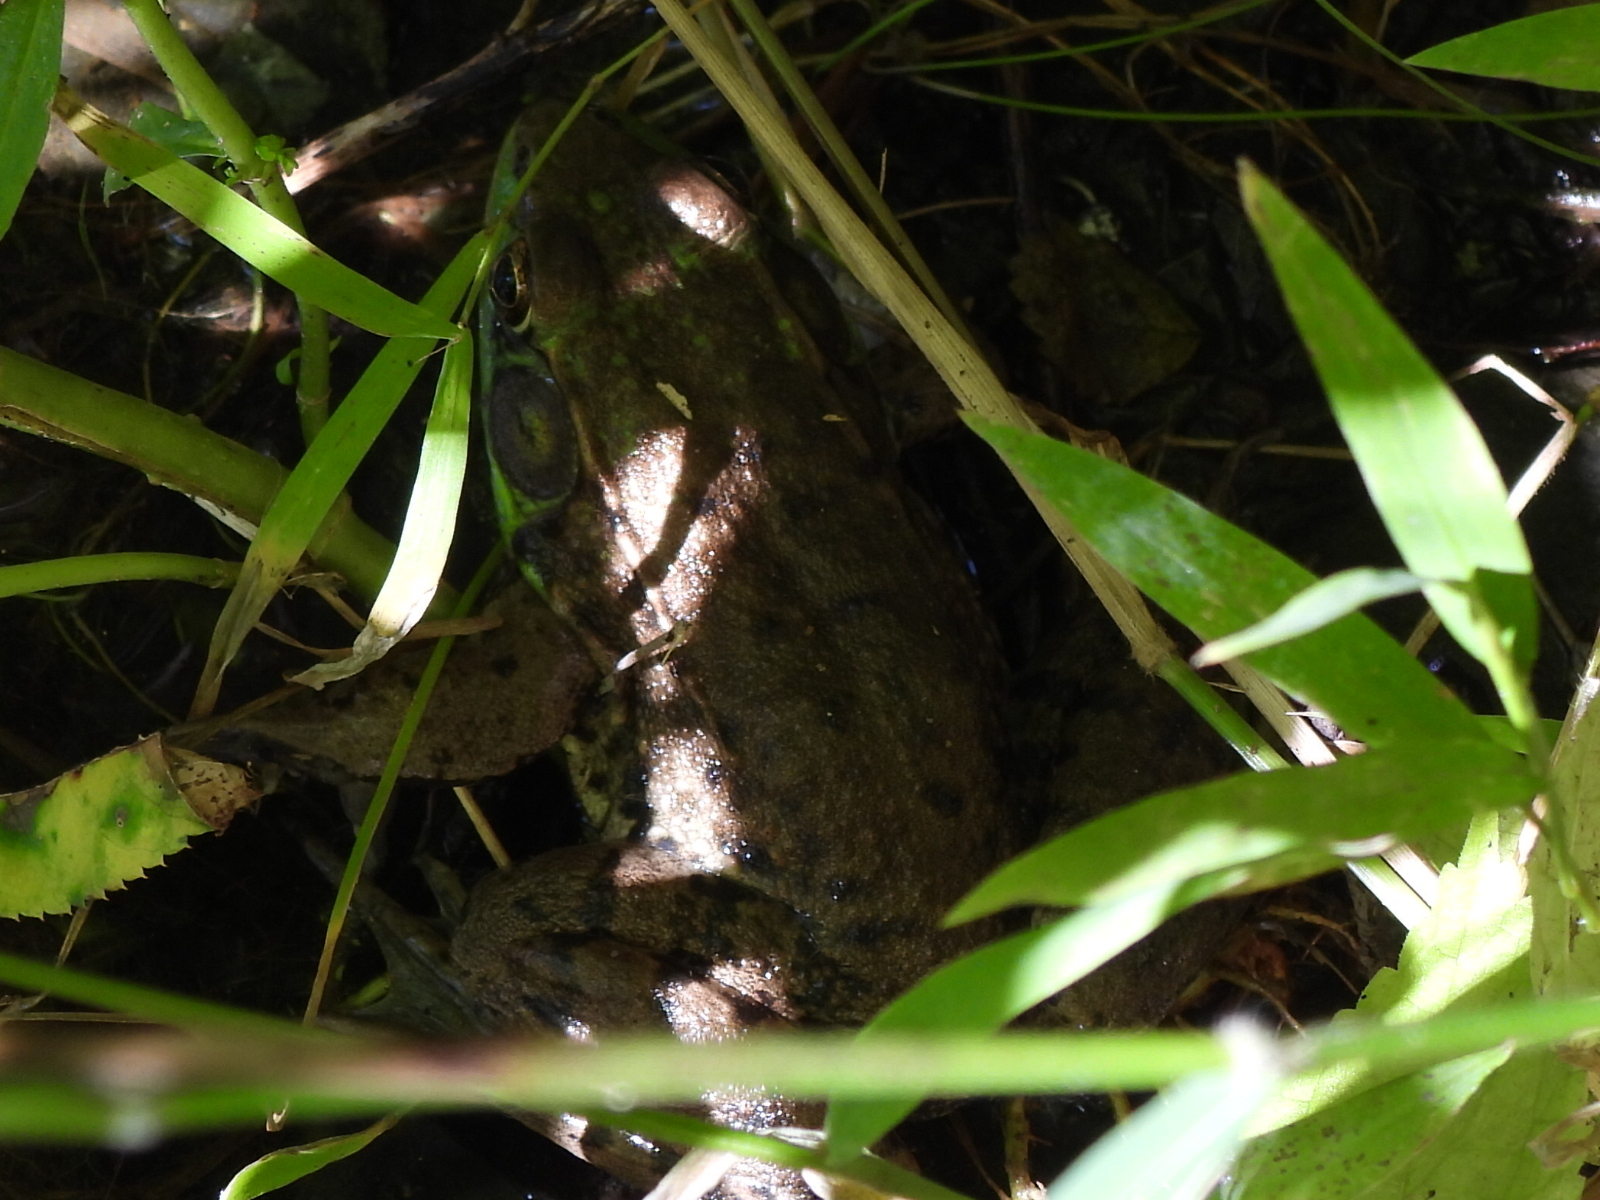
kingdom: Animalia
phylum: Chordata
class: Amphibia
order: Anura
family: Ranidae
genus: Lithobates
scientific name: Lithobates clamitans
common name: Green frog
